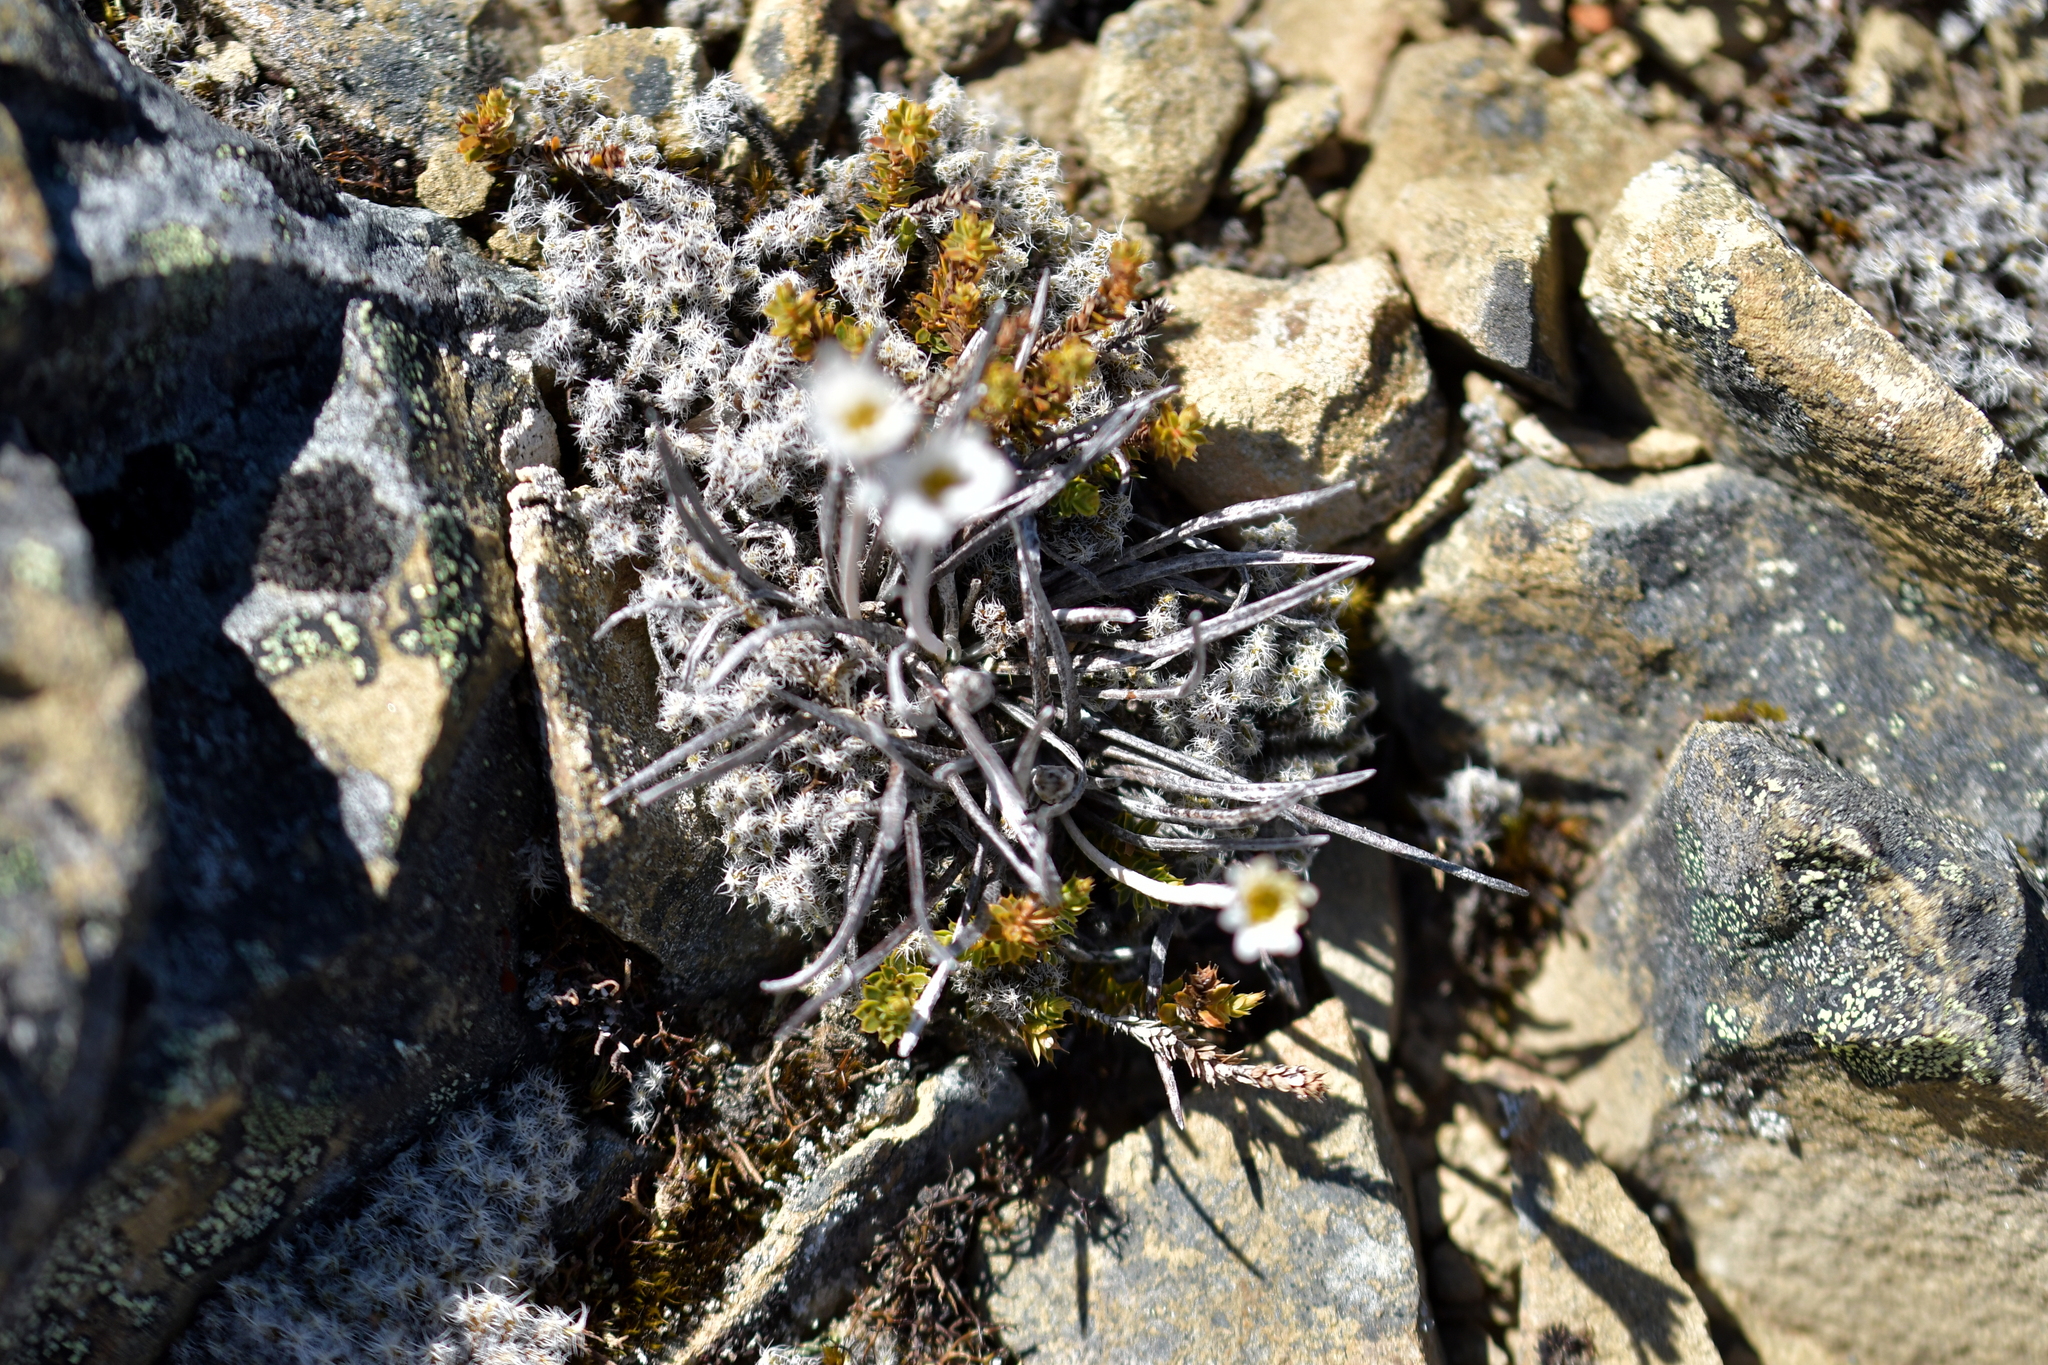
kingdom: Plantae
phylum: Tracheophyta
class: Magnoliopsida
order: Asterales
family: Asteraceae
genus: Celmisia
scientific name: Celmisia gracilenta
